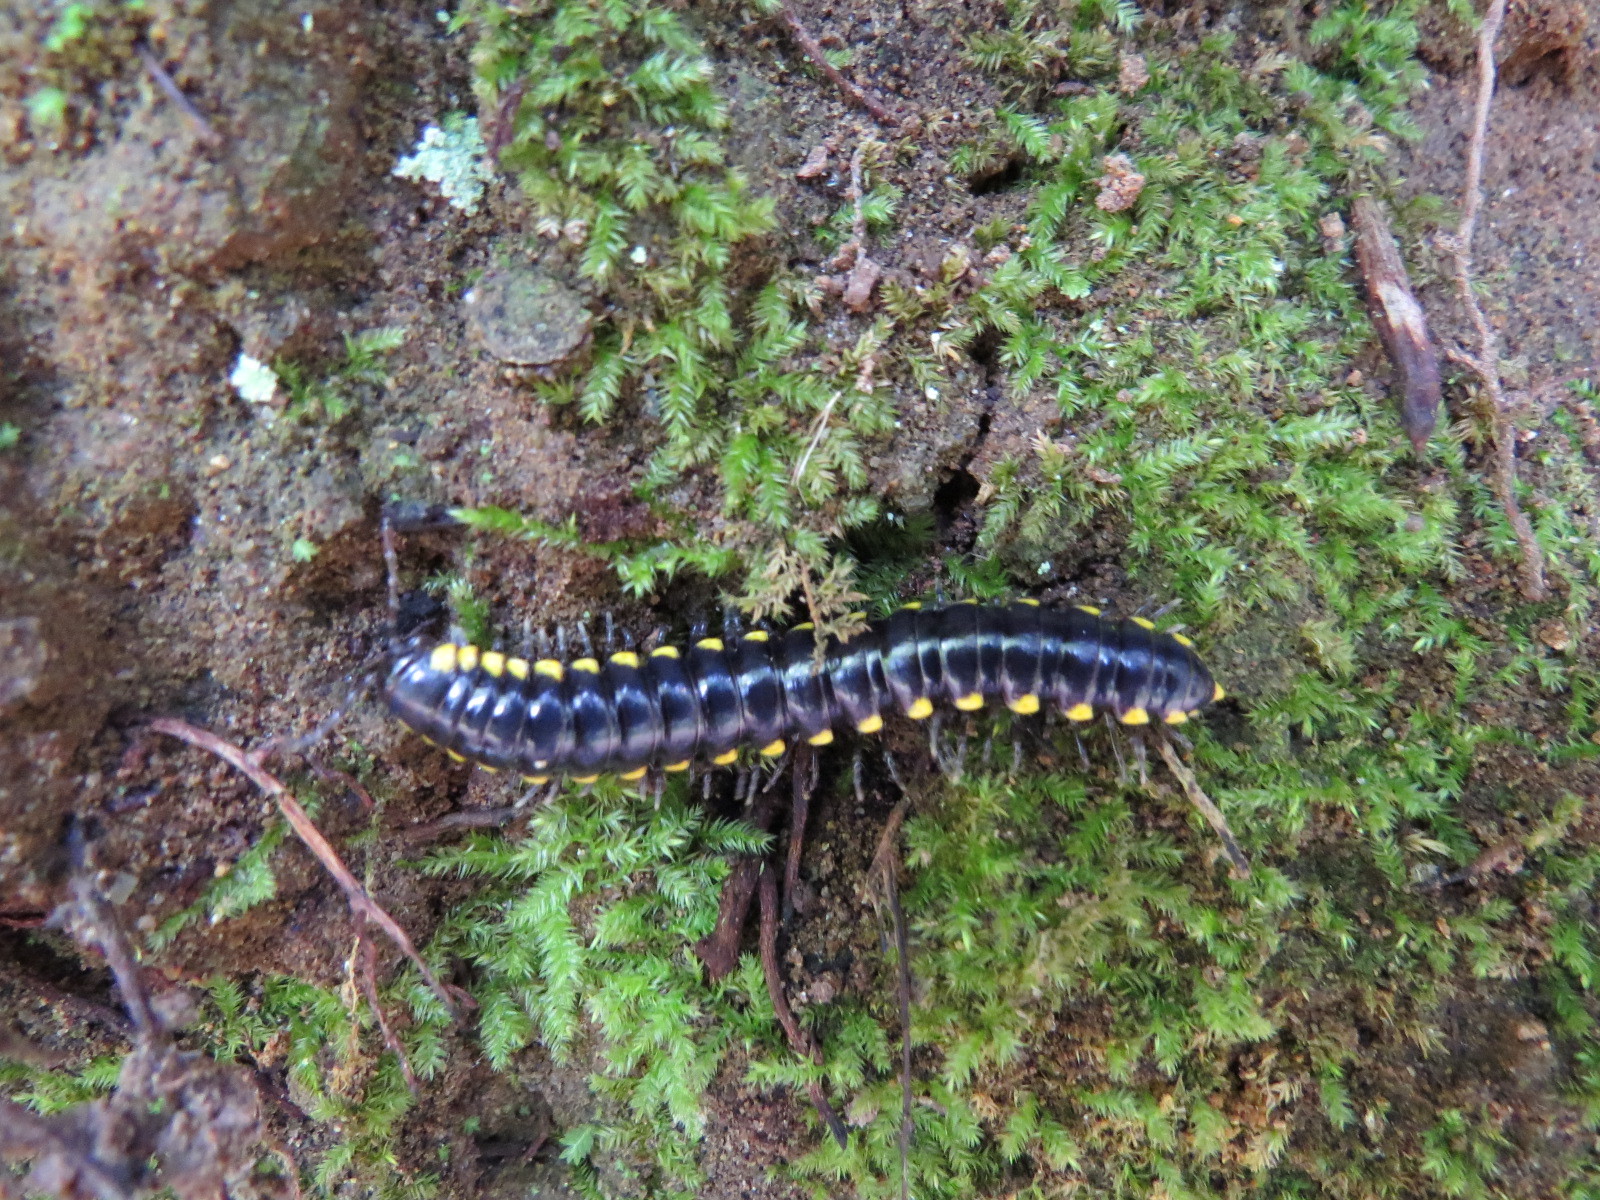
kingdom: Animalia
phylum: Arthropoda
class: Diplopoda
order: Polydesmida
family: Xystodesmidae
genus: Harpaphe
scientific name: Harpaphe haydeniana
